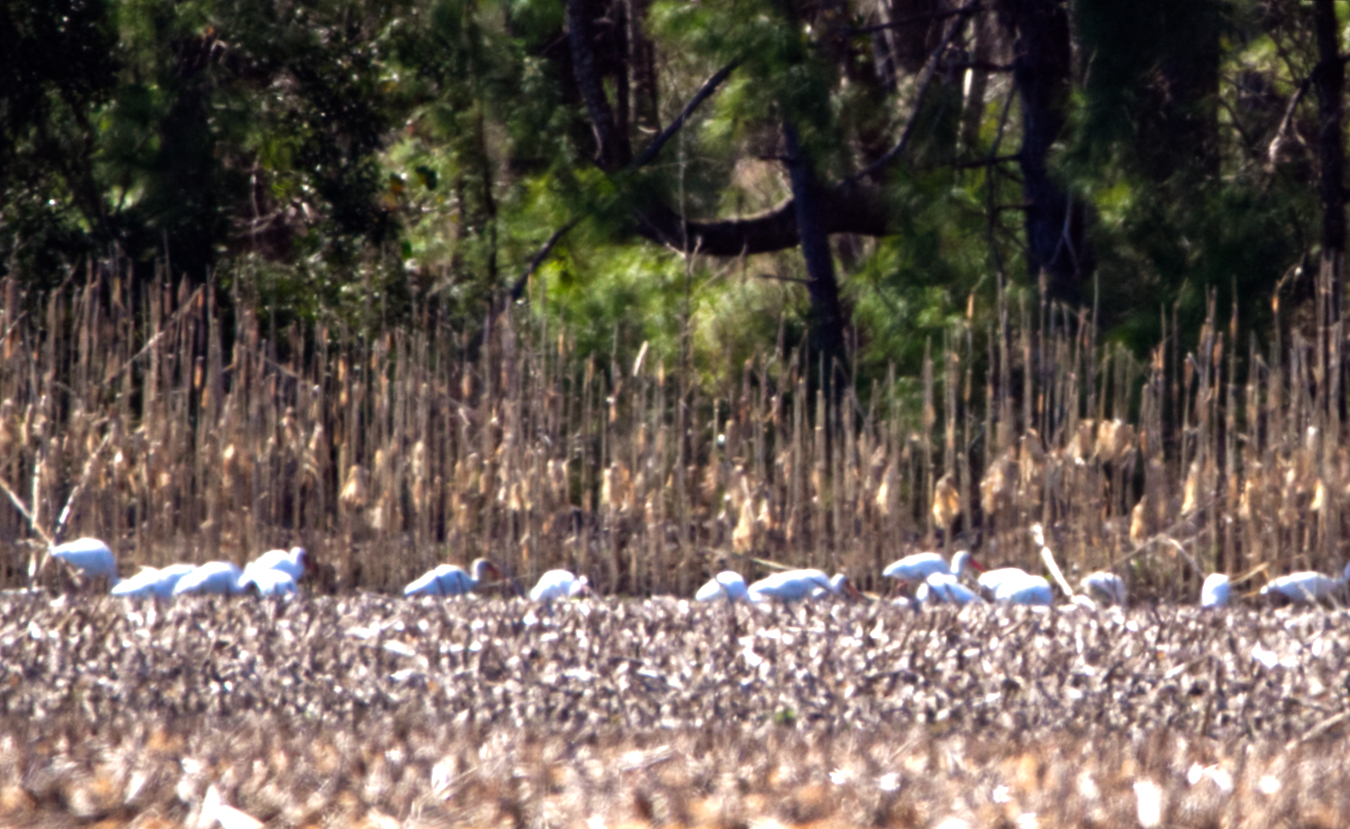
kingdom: Animalia
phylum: Chordata
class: Aves
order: Pelecaniformes
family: Threskiornithidae
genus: Eudocimus
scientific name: Eudocimus albus
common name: White ibis
